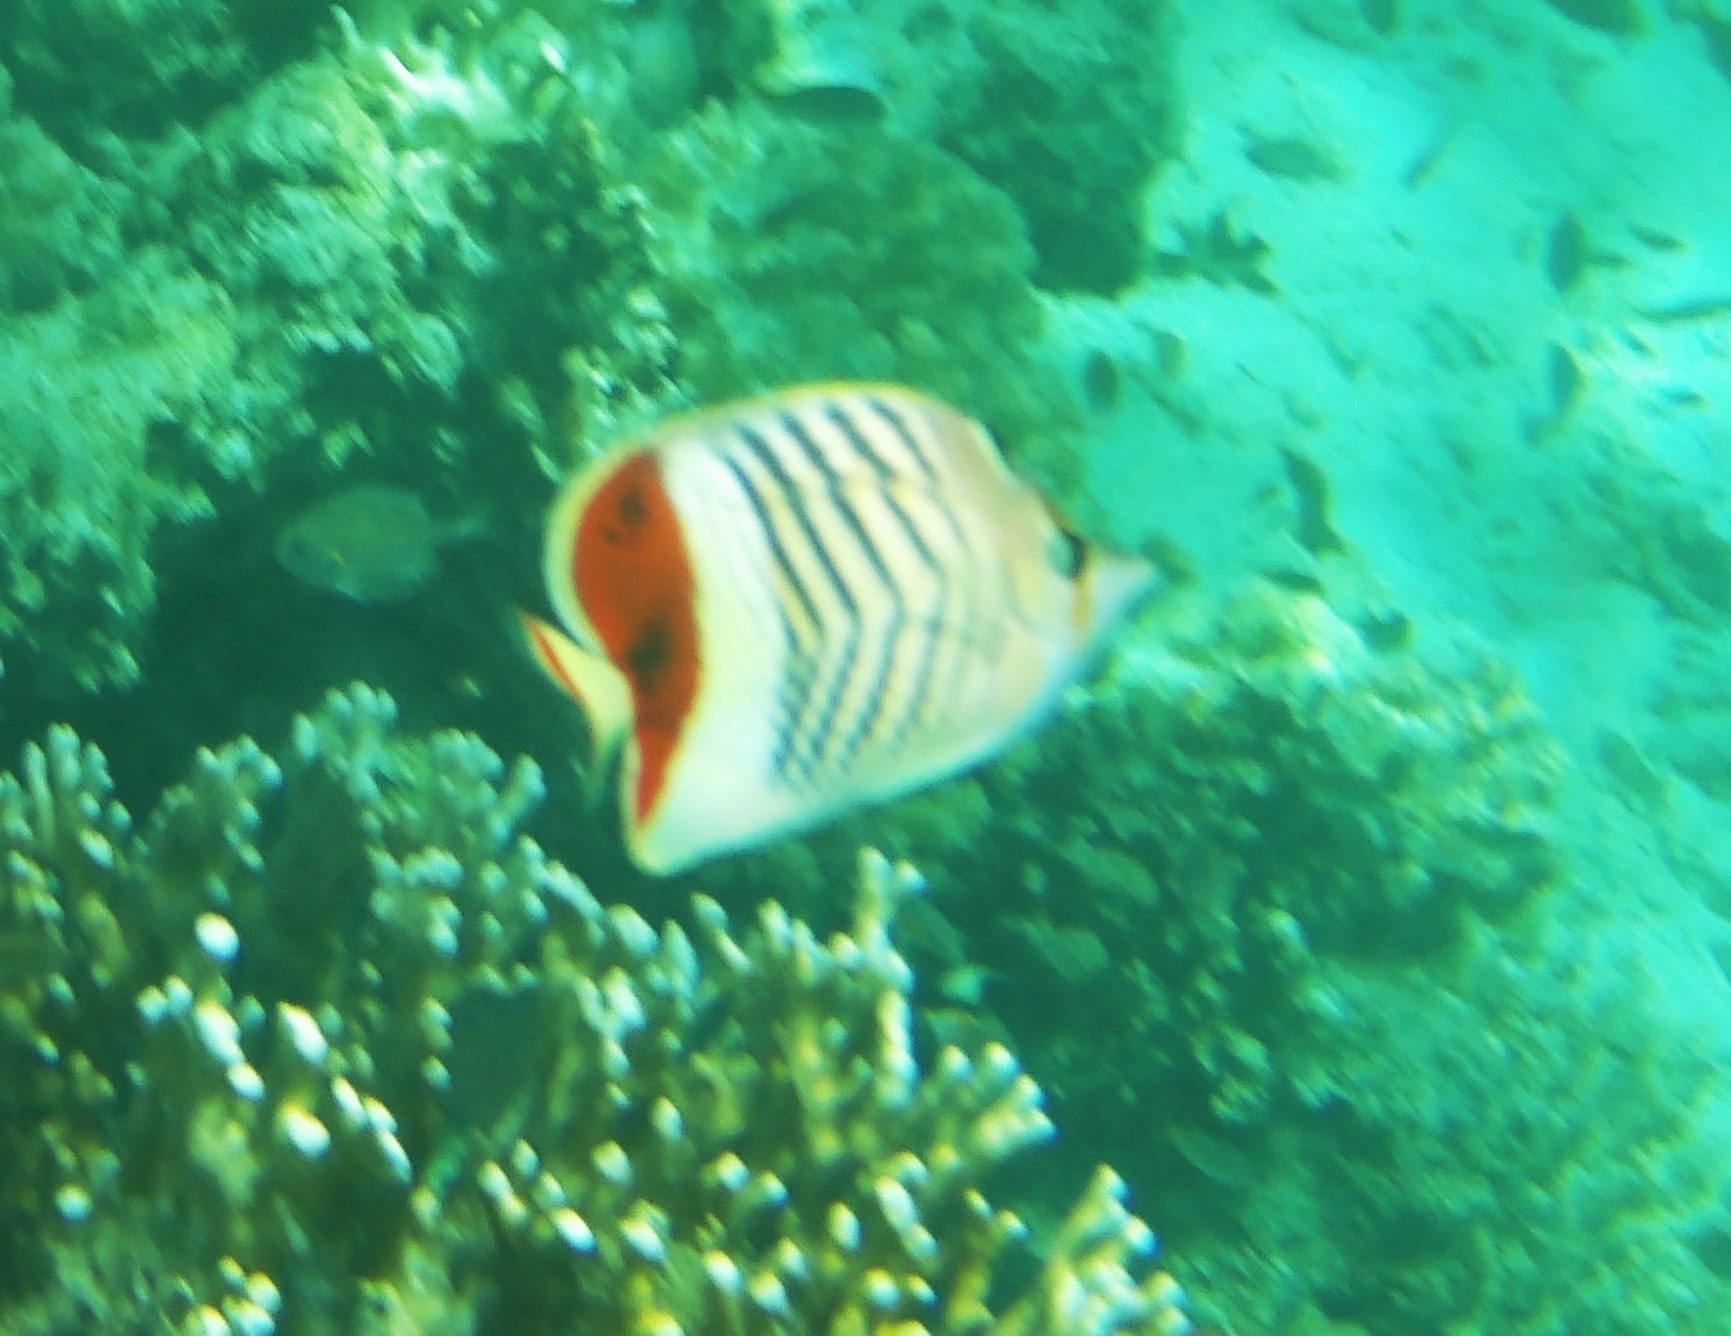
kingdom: Animalia
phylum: Chordata
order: Perciformes
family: Chaetodontidae
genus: Chaetodon
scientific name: Chaetodon paucifasciatus
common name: Crown butterflyfish
